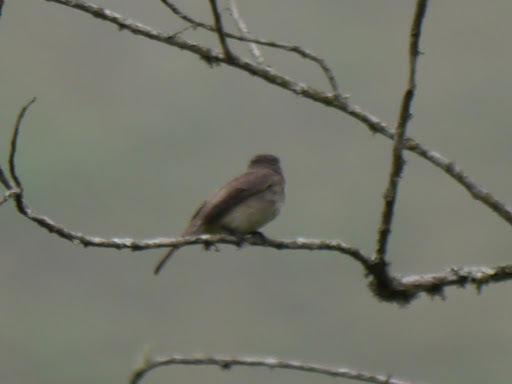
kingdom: Animalia
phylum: Chordata
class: Aves
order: Passeriformes
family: Muscicapidae
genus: Muscicapa
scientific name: Muscicapa adusta
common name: African dusky flycatcher
